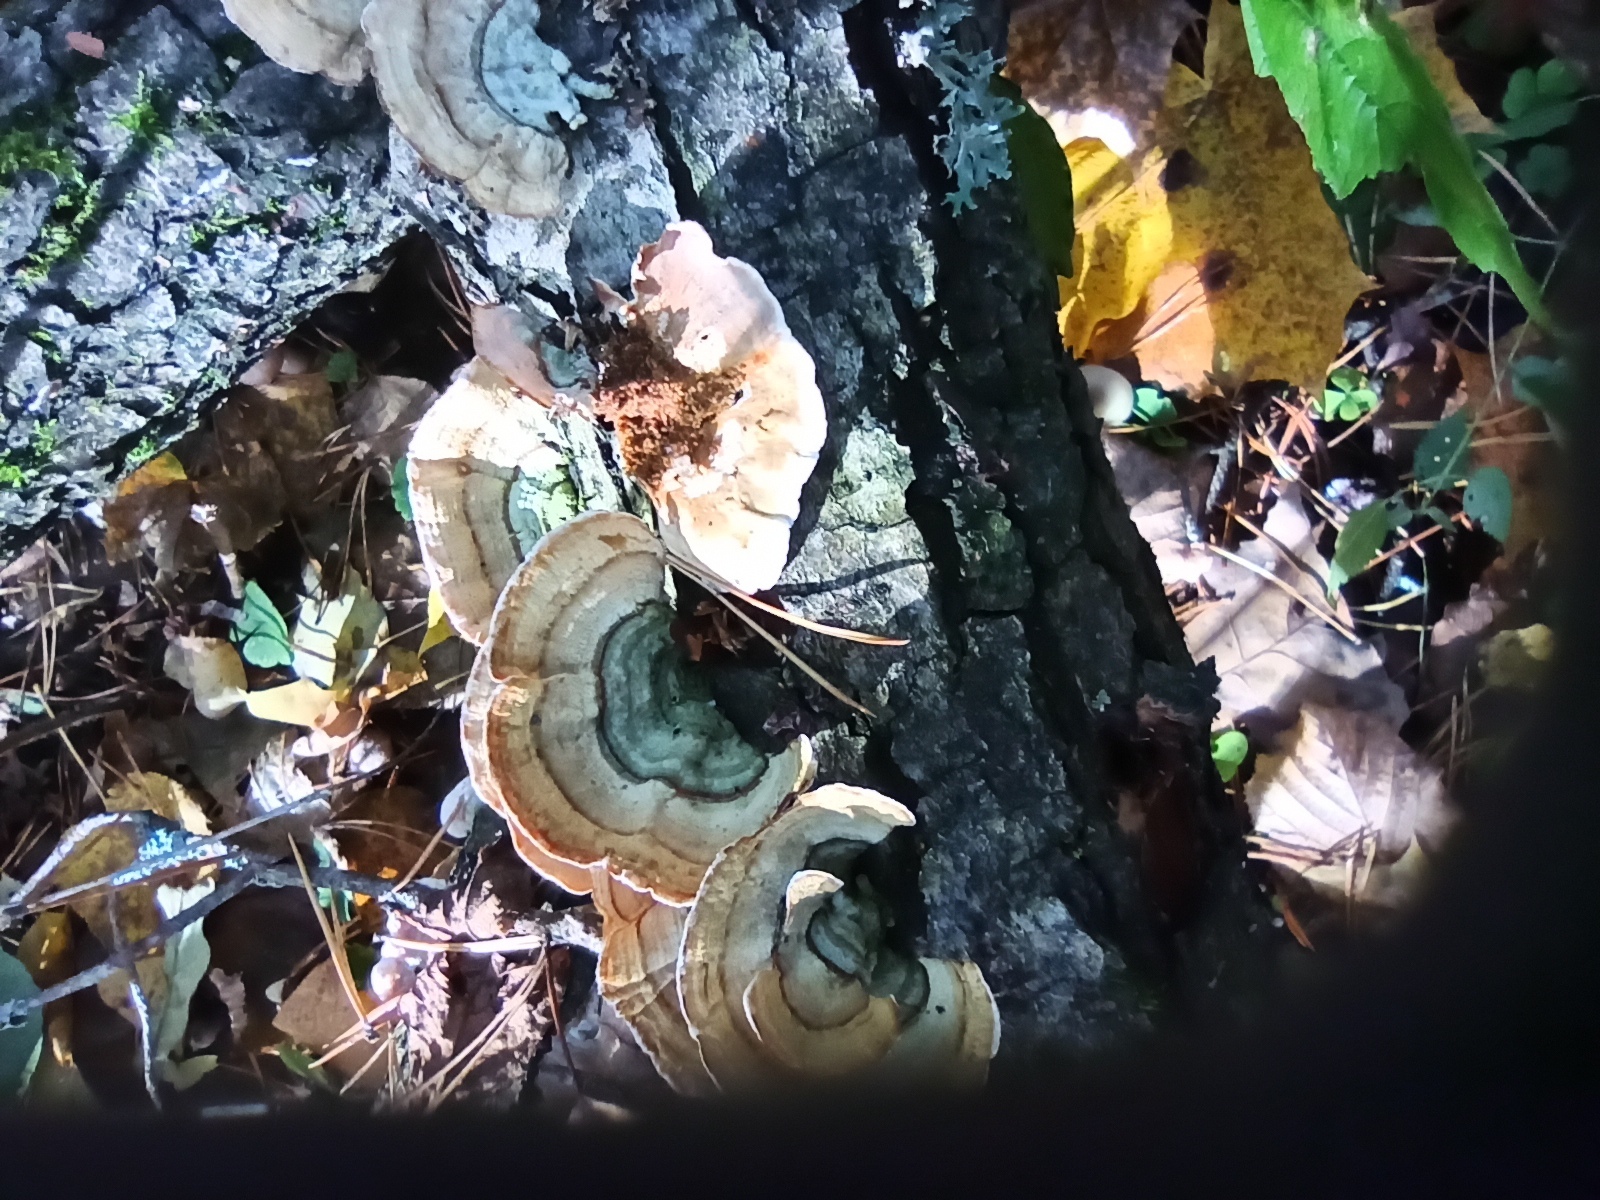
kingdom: Fungi
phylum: Basidiomycota
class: Agaricomycetes
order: Polyporales
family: Polyporaceae
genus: Trametes
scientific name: Trametes hirsuta
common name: Hairy bracket
